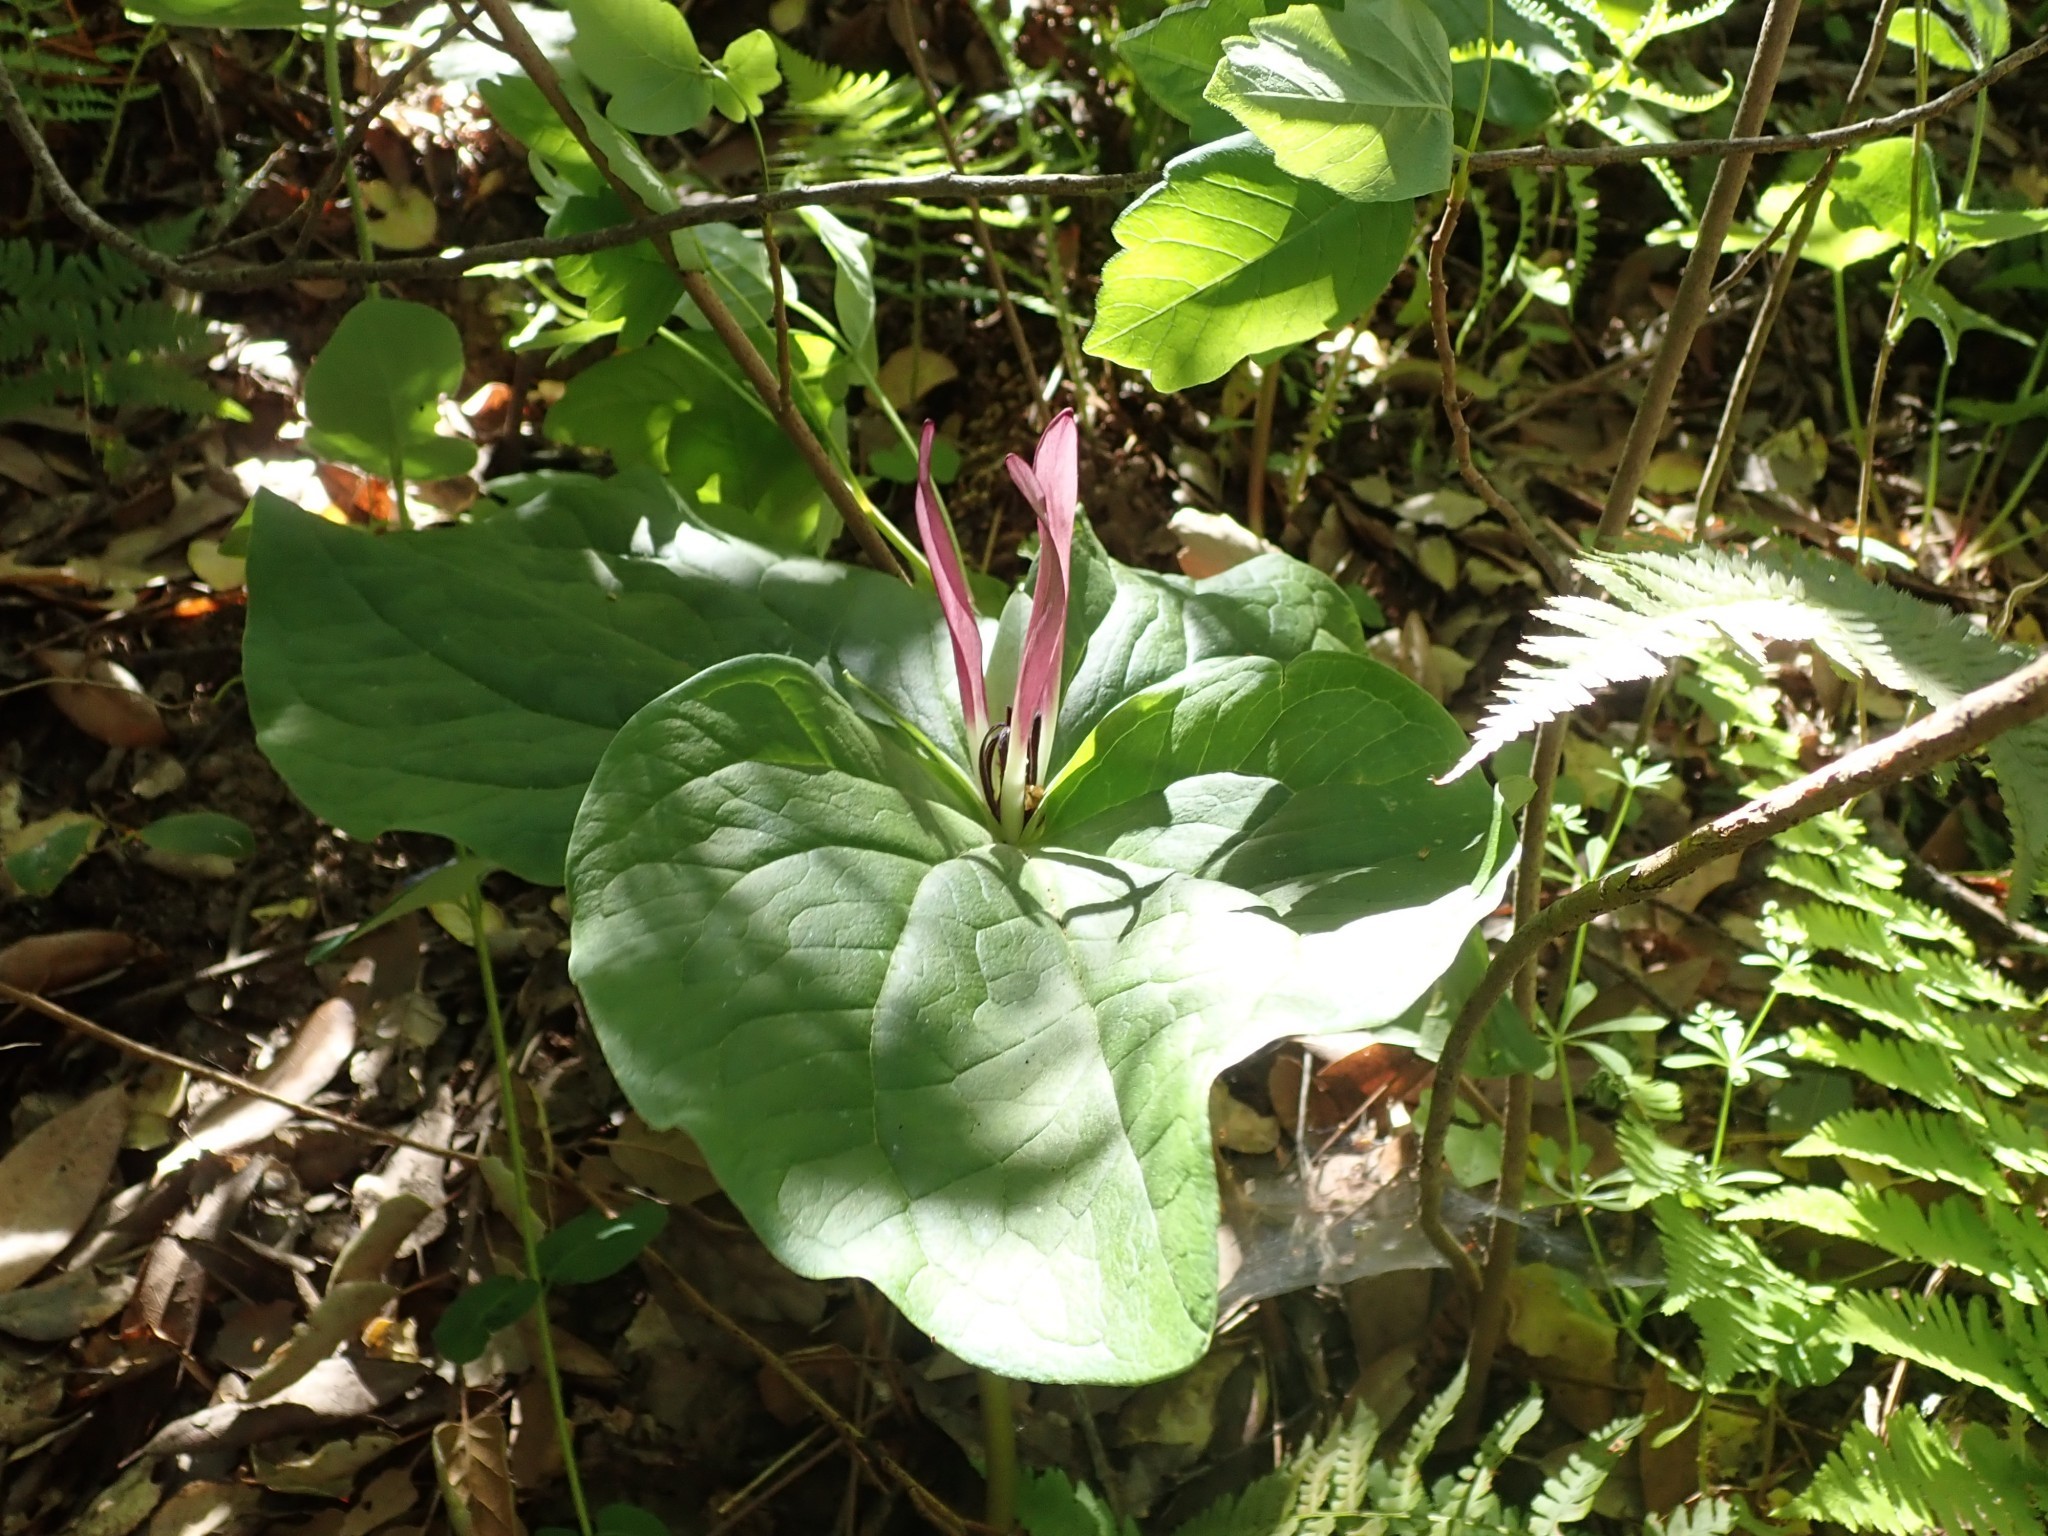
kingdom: Plantae
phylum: Tracheophyta
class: Liliopsida
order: Liliales
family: Melanthiaceae
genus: Trillium
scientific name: Trillium chloropetalum
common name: Giant trillium
